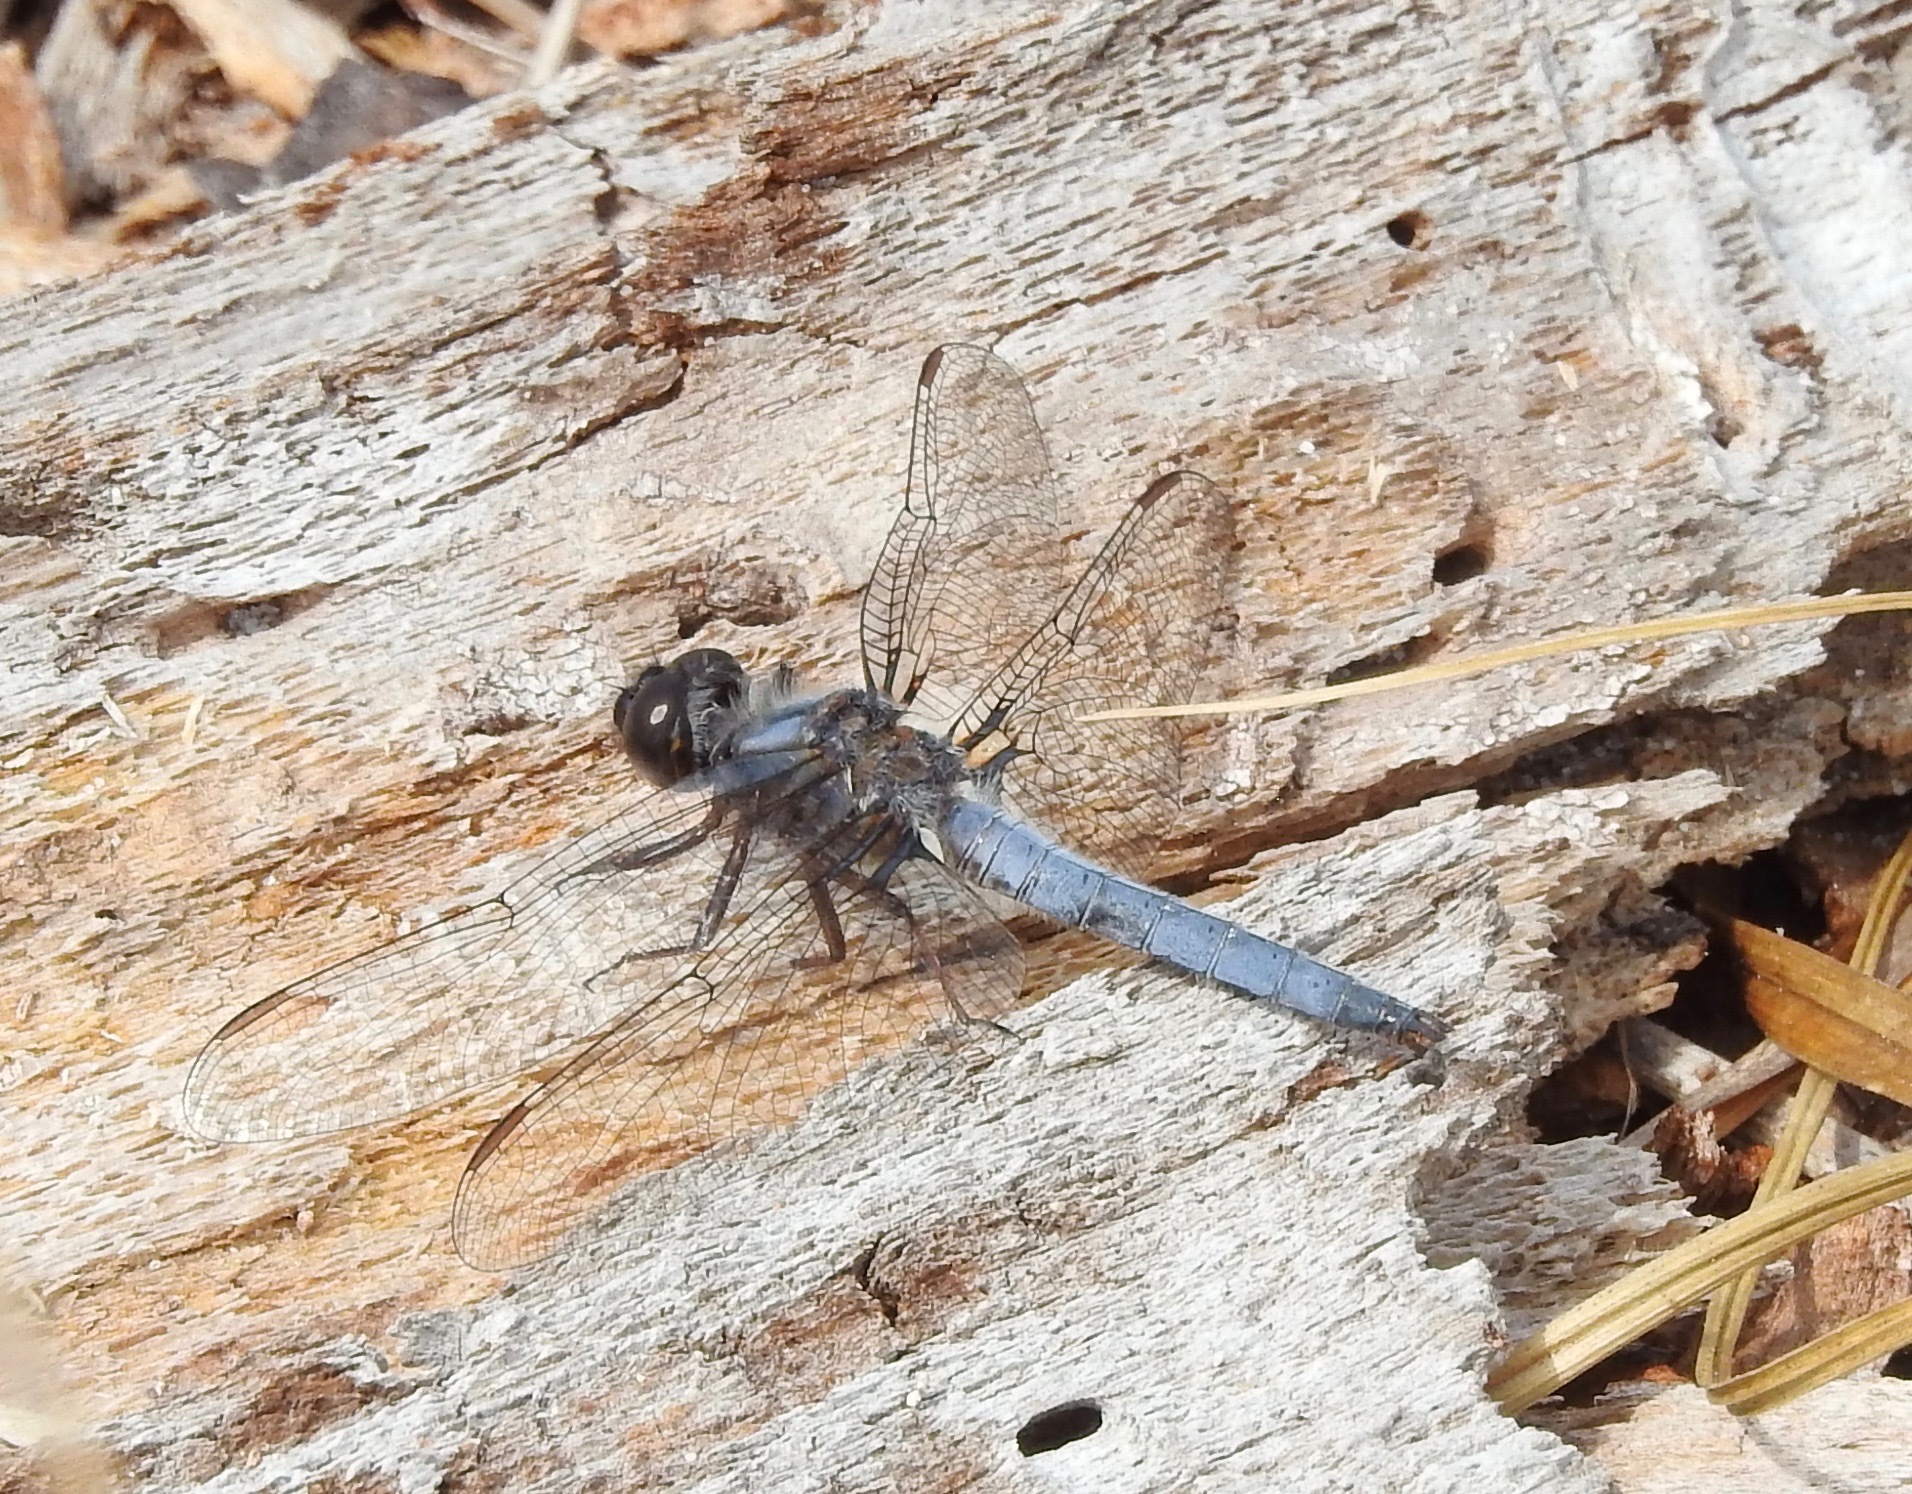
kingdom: Animalia
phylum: Arthropoda
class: Insecta
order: Odonata
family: Libellulidae
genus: Ladona
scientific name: Ladona deplanata
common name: Blue corporal
